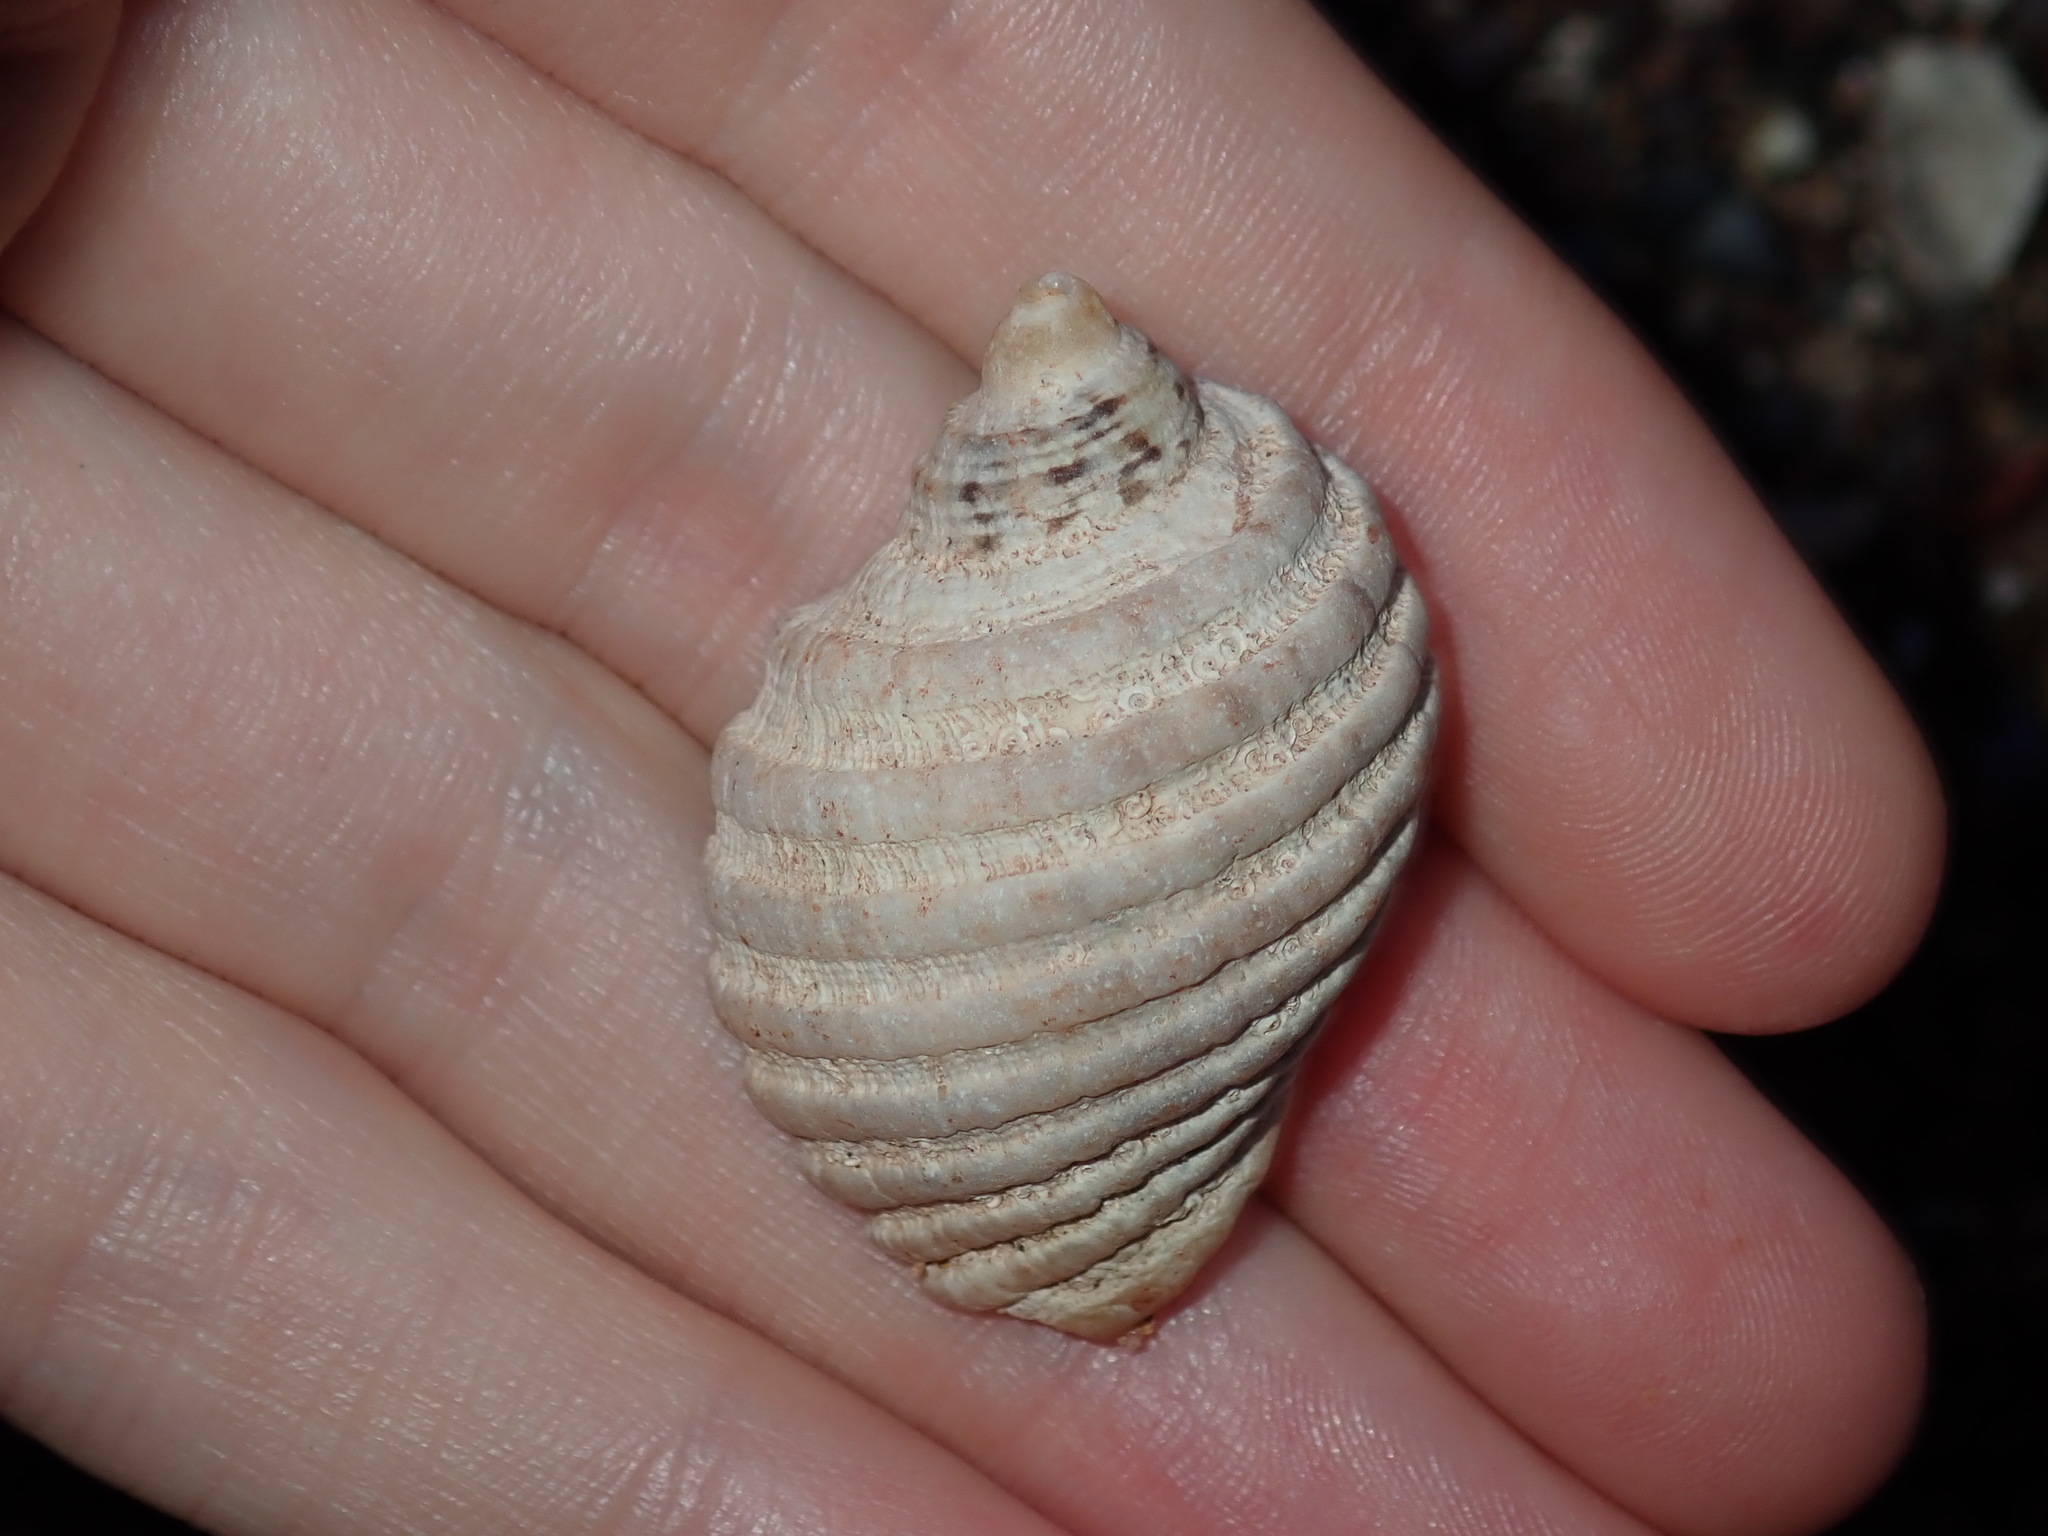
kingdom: Animalia
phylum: Mollusca
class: Gastropoda
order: Neogastropoda
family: Muricidae
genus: Dicathais
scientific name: Dicathais orbita
